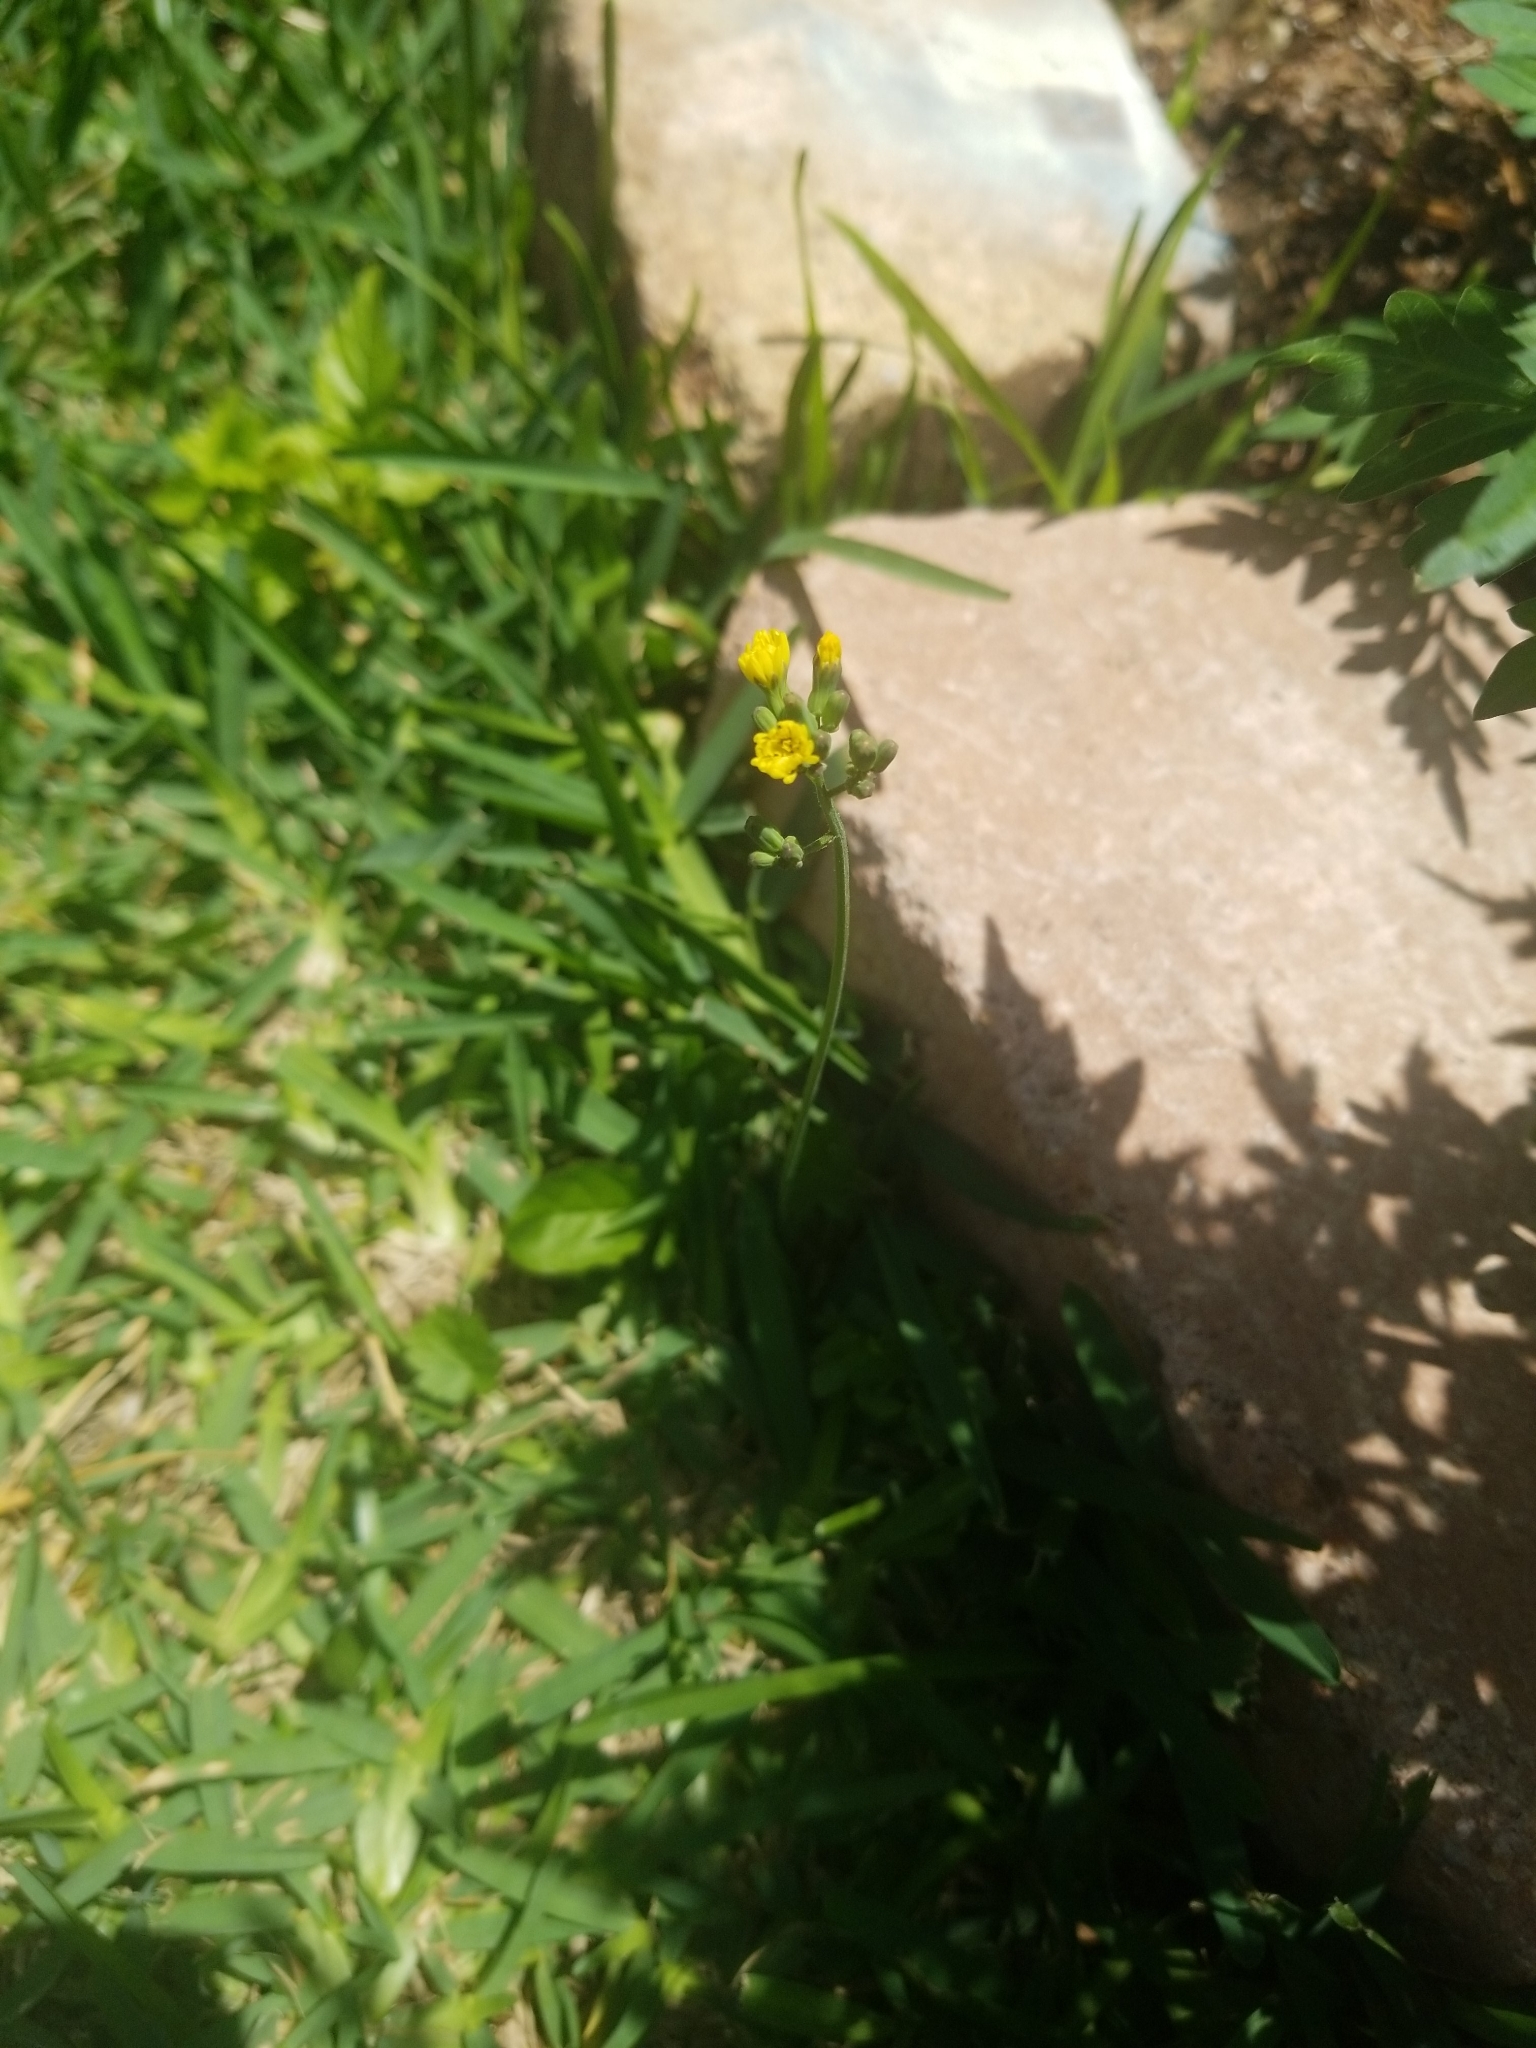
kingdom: Plantae
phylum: Tracheophyta
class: Magnoliopsida
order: Asterales
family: Asteraceae
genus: Youngia
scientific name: Youngia japonica
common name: Oriental false hawksbeard
